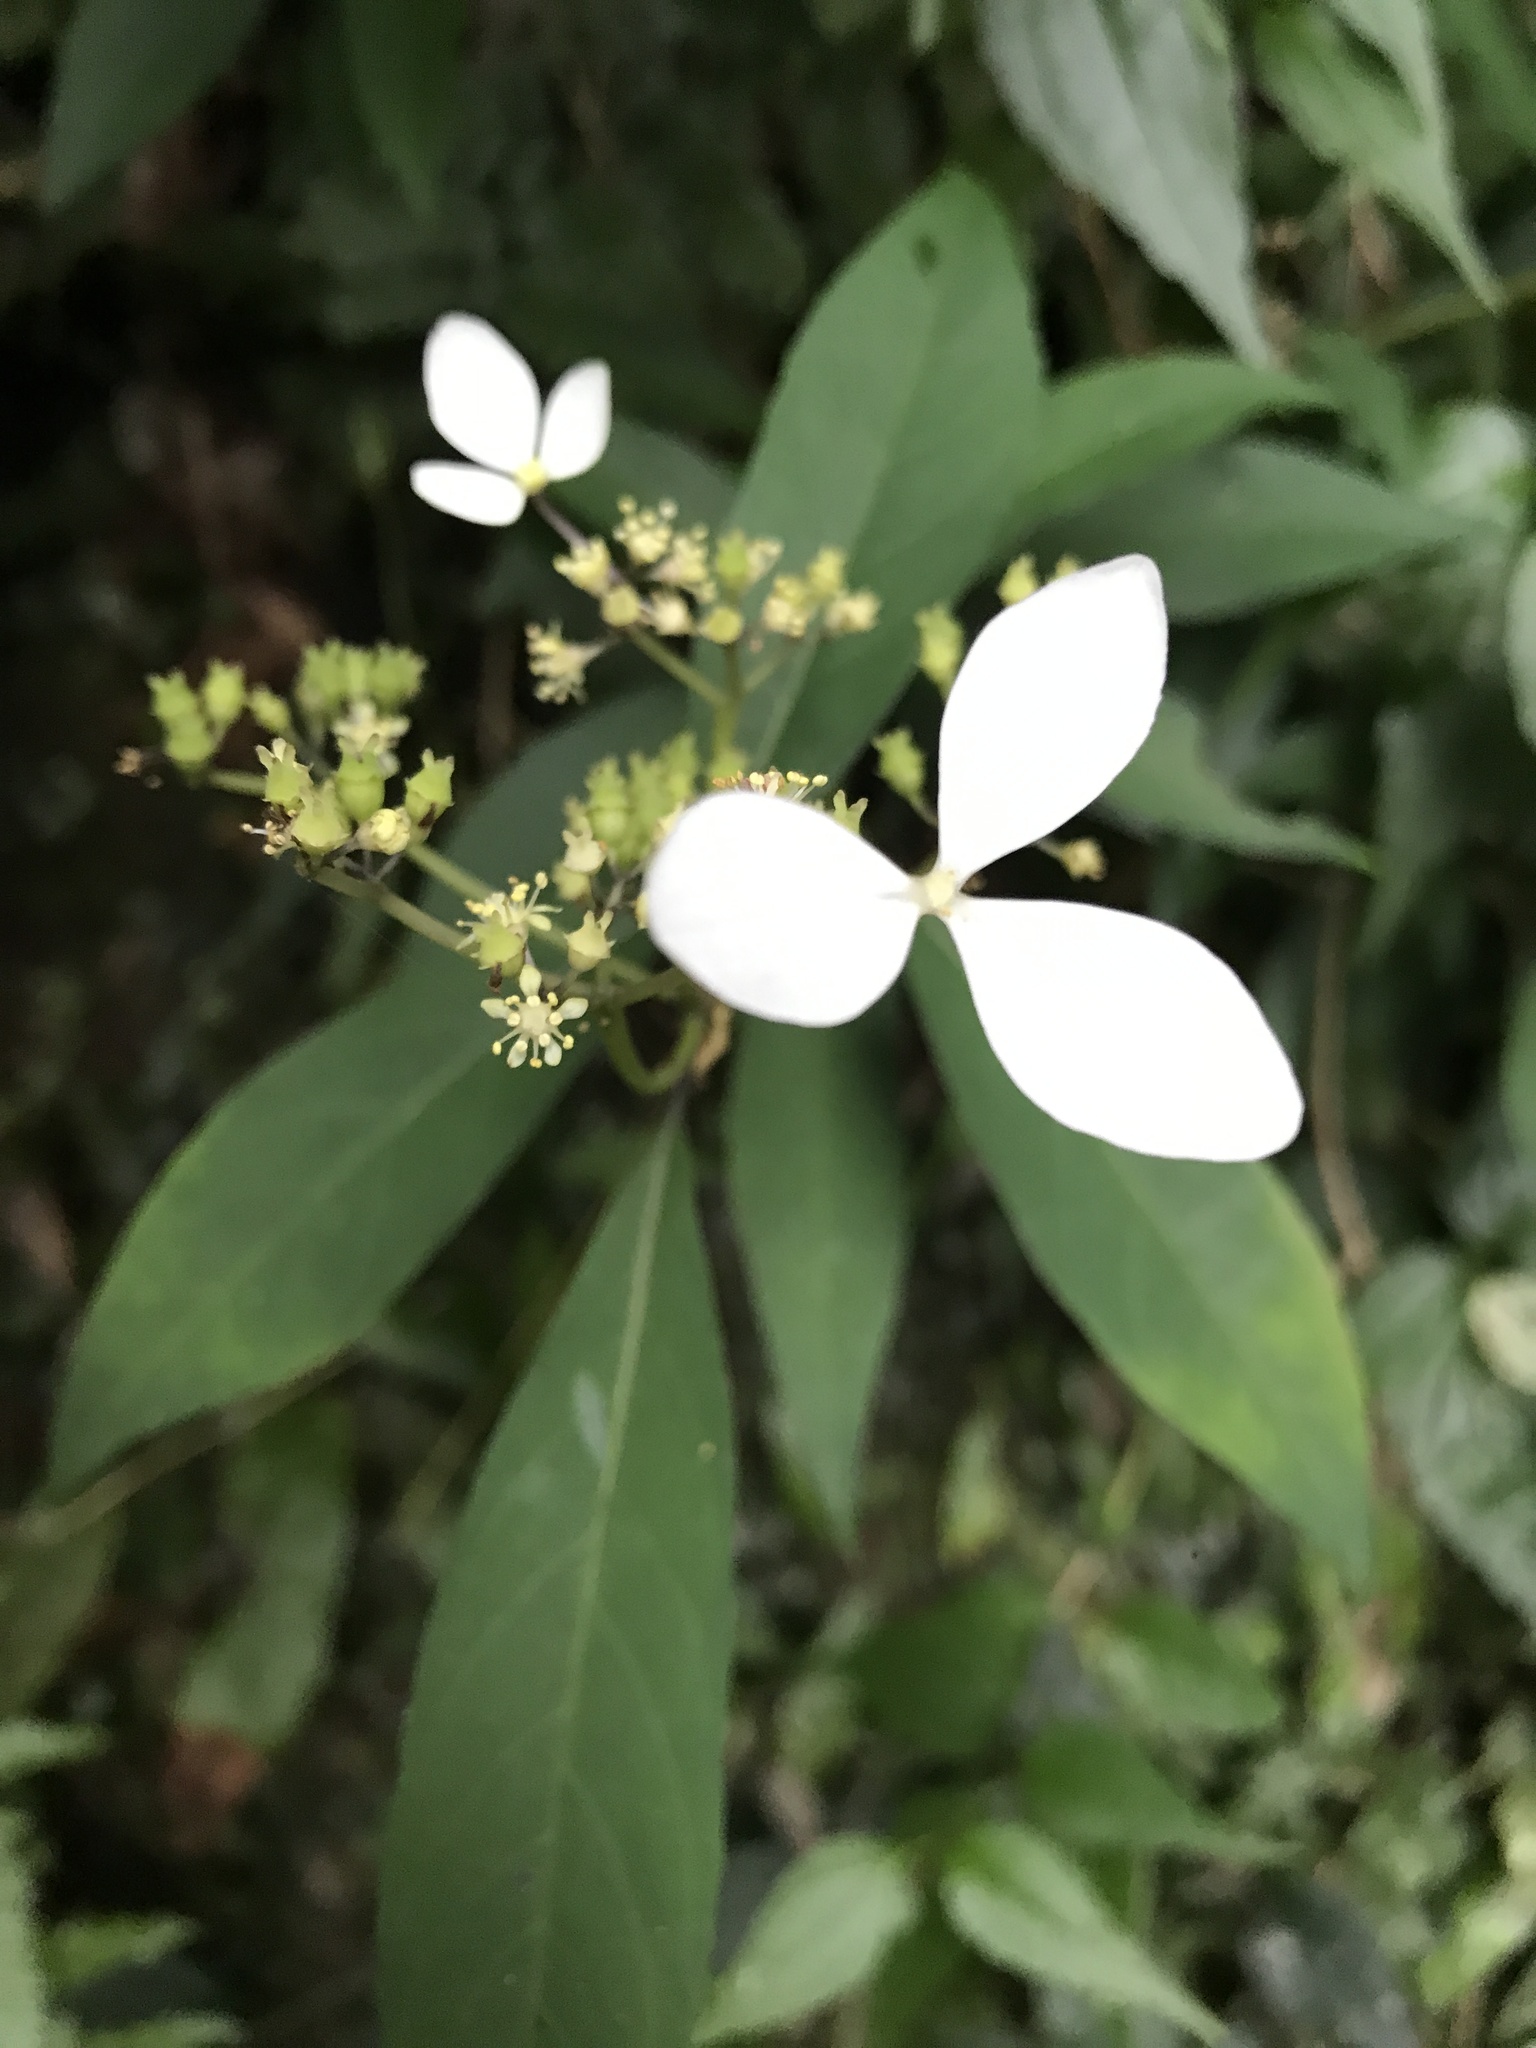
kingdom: Plantae
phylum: Tracheophyta
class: Magnoliopsida
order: Cornales
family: Hydrangeaceae
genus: Hydrangea
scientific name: Hydrangea chinensis
